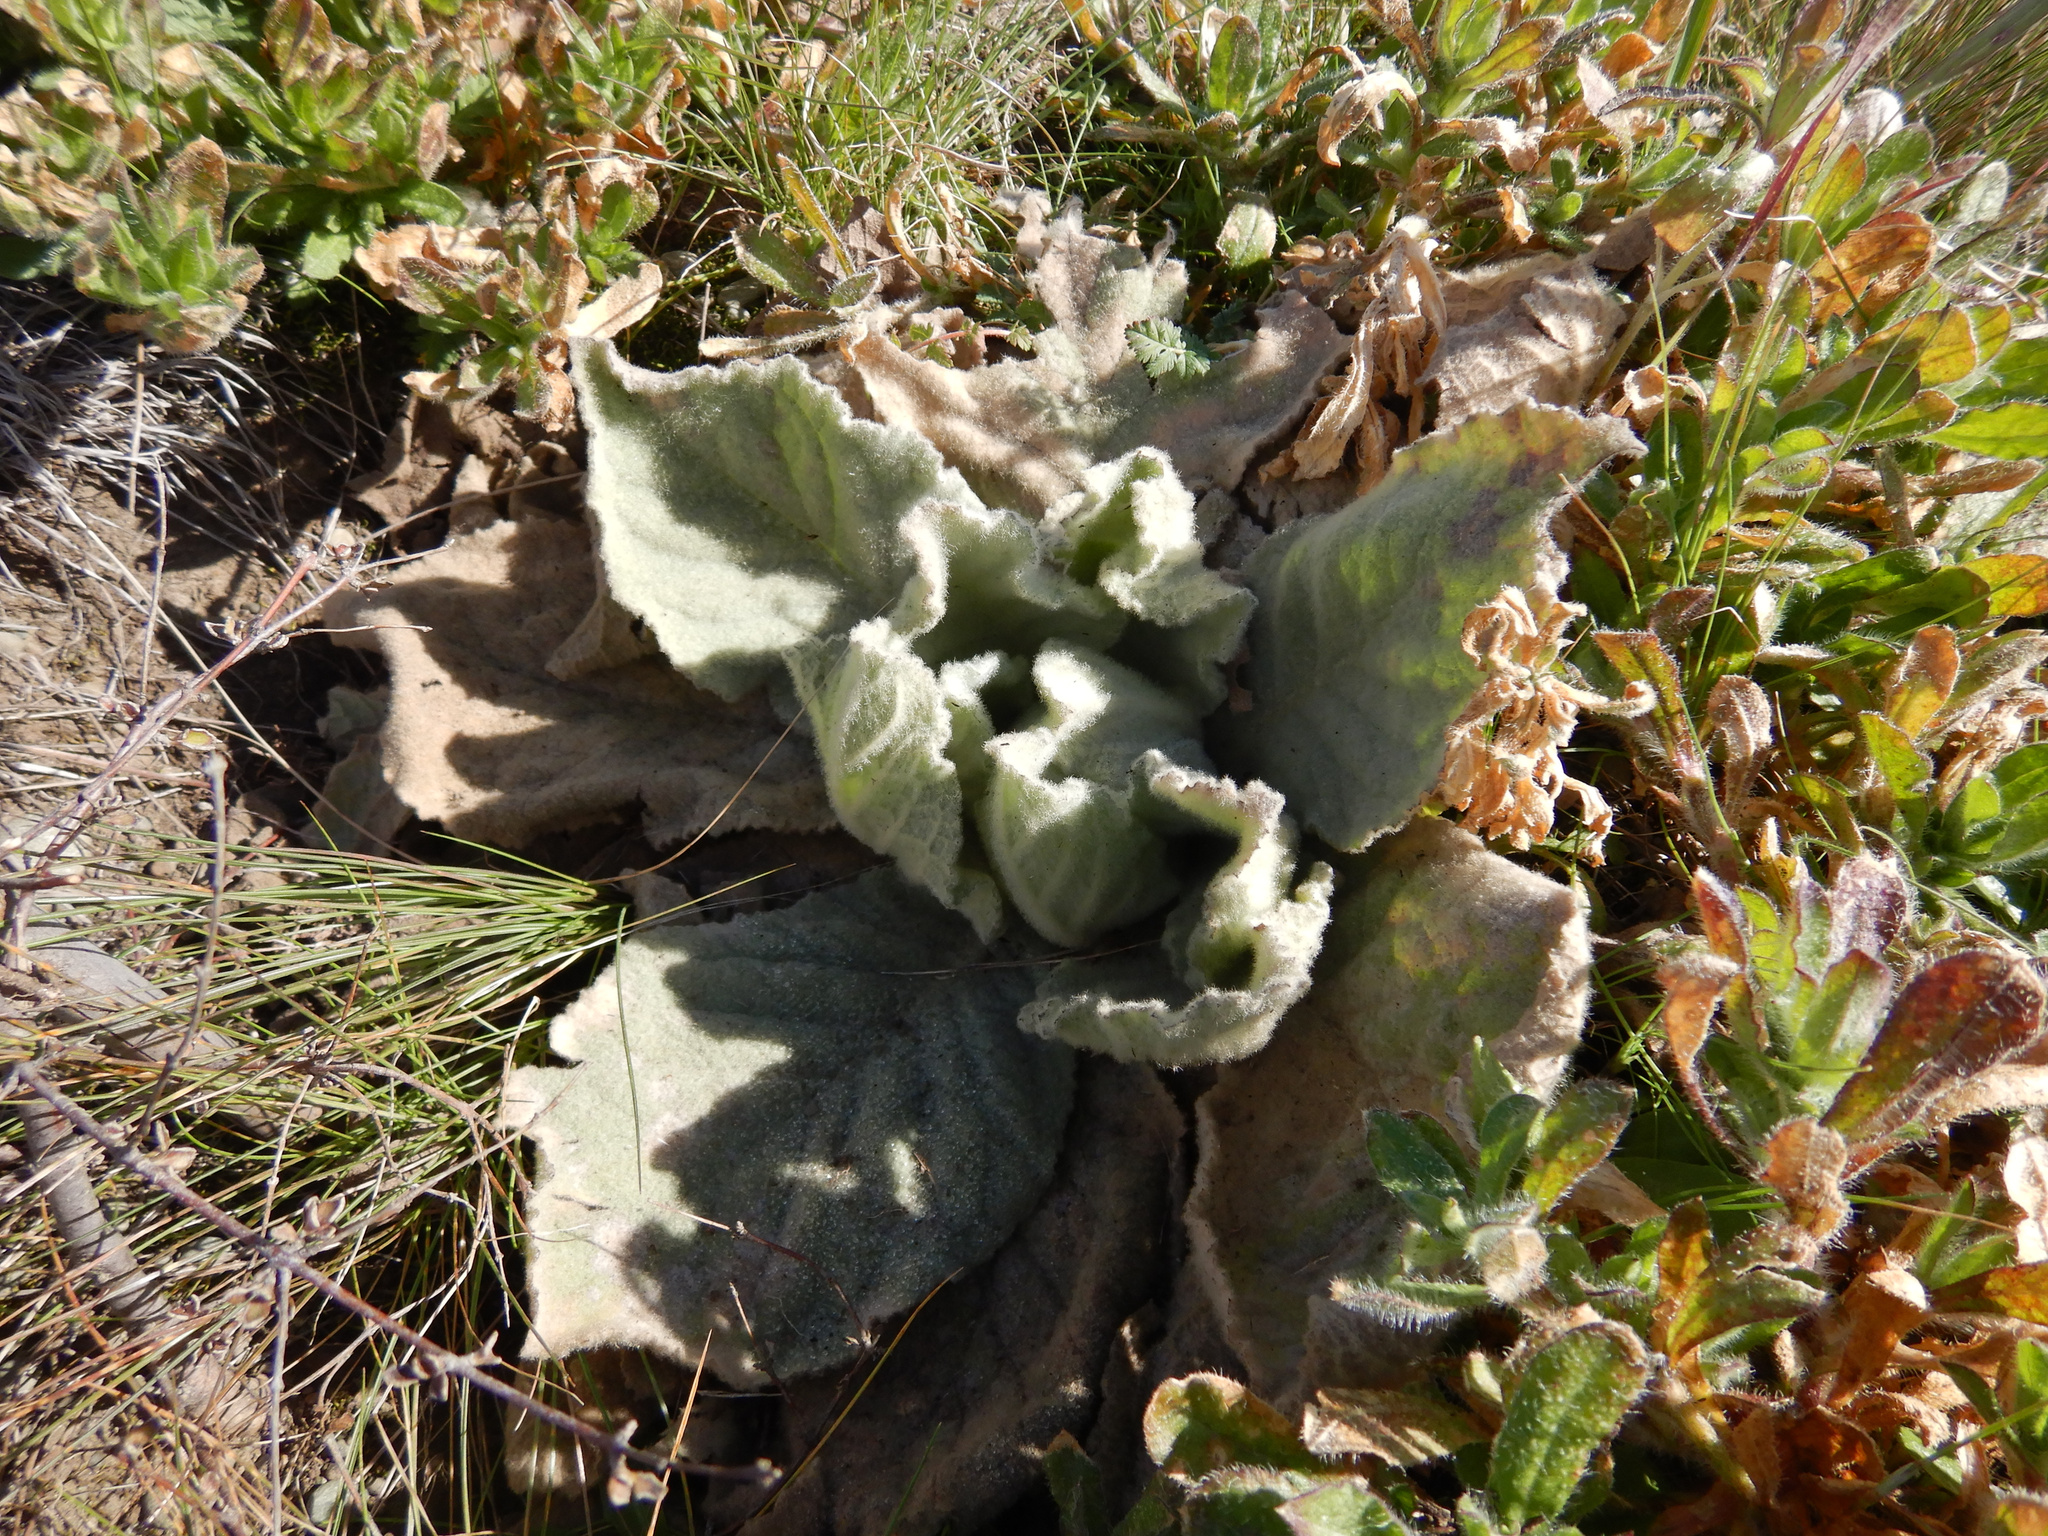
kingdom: Plantae
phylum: Tracheophyta
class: Magnoliopsida
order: Lamiales
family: Scrophulariaceae
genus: Verbascum
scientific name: Verbascum thapsus
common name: Common mullein
